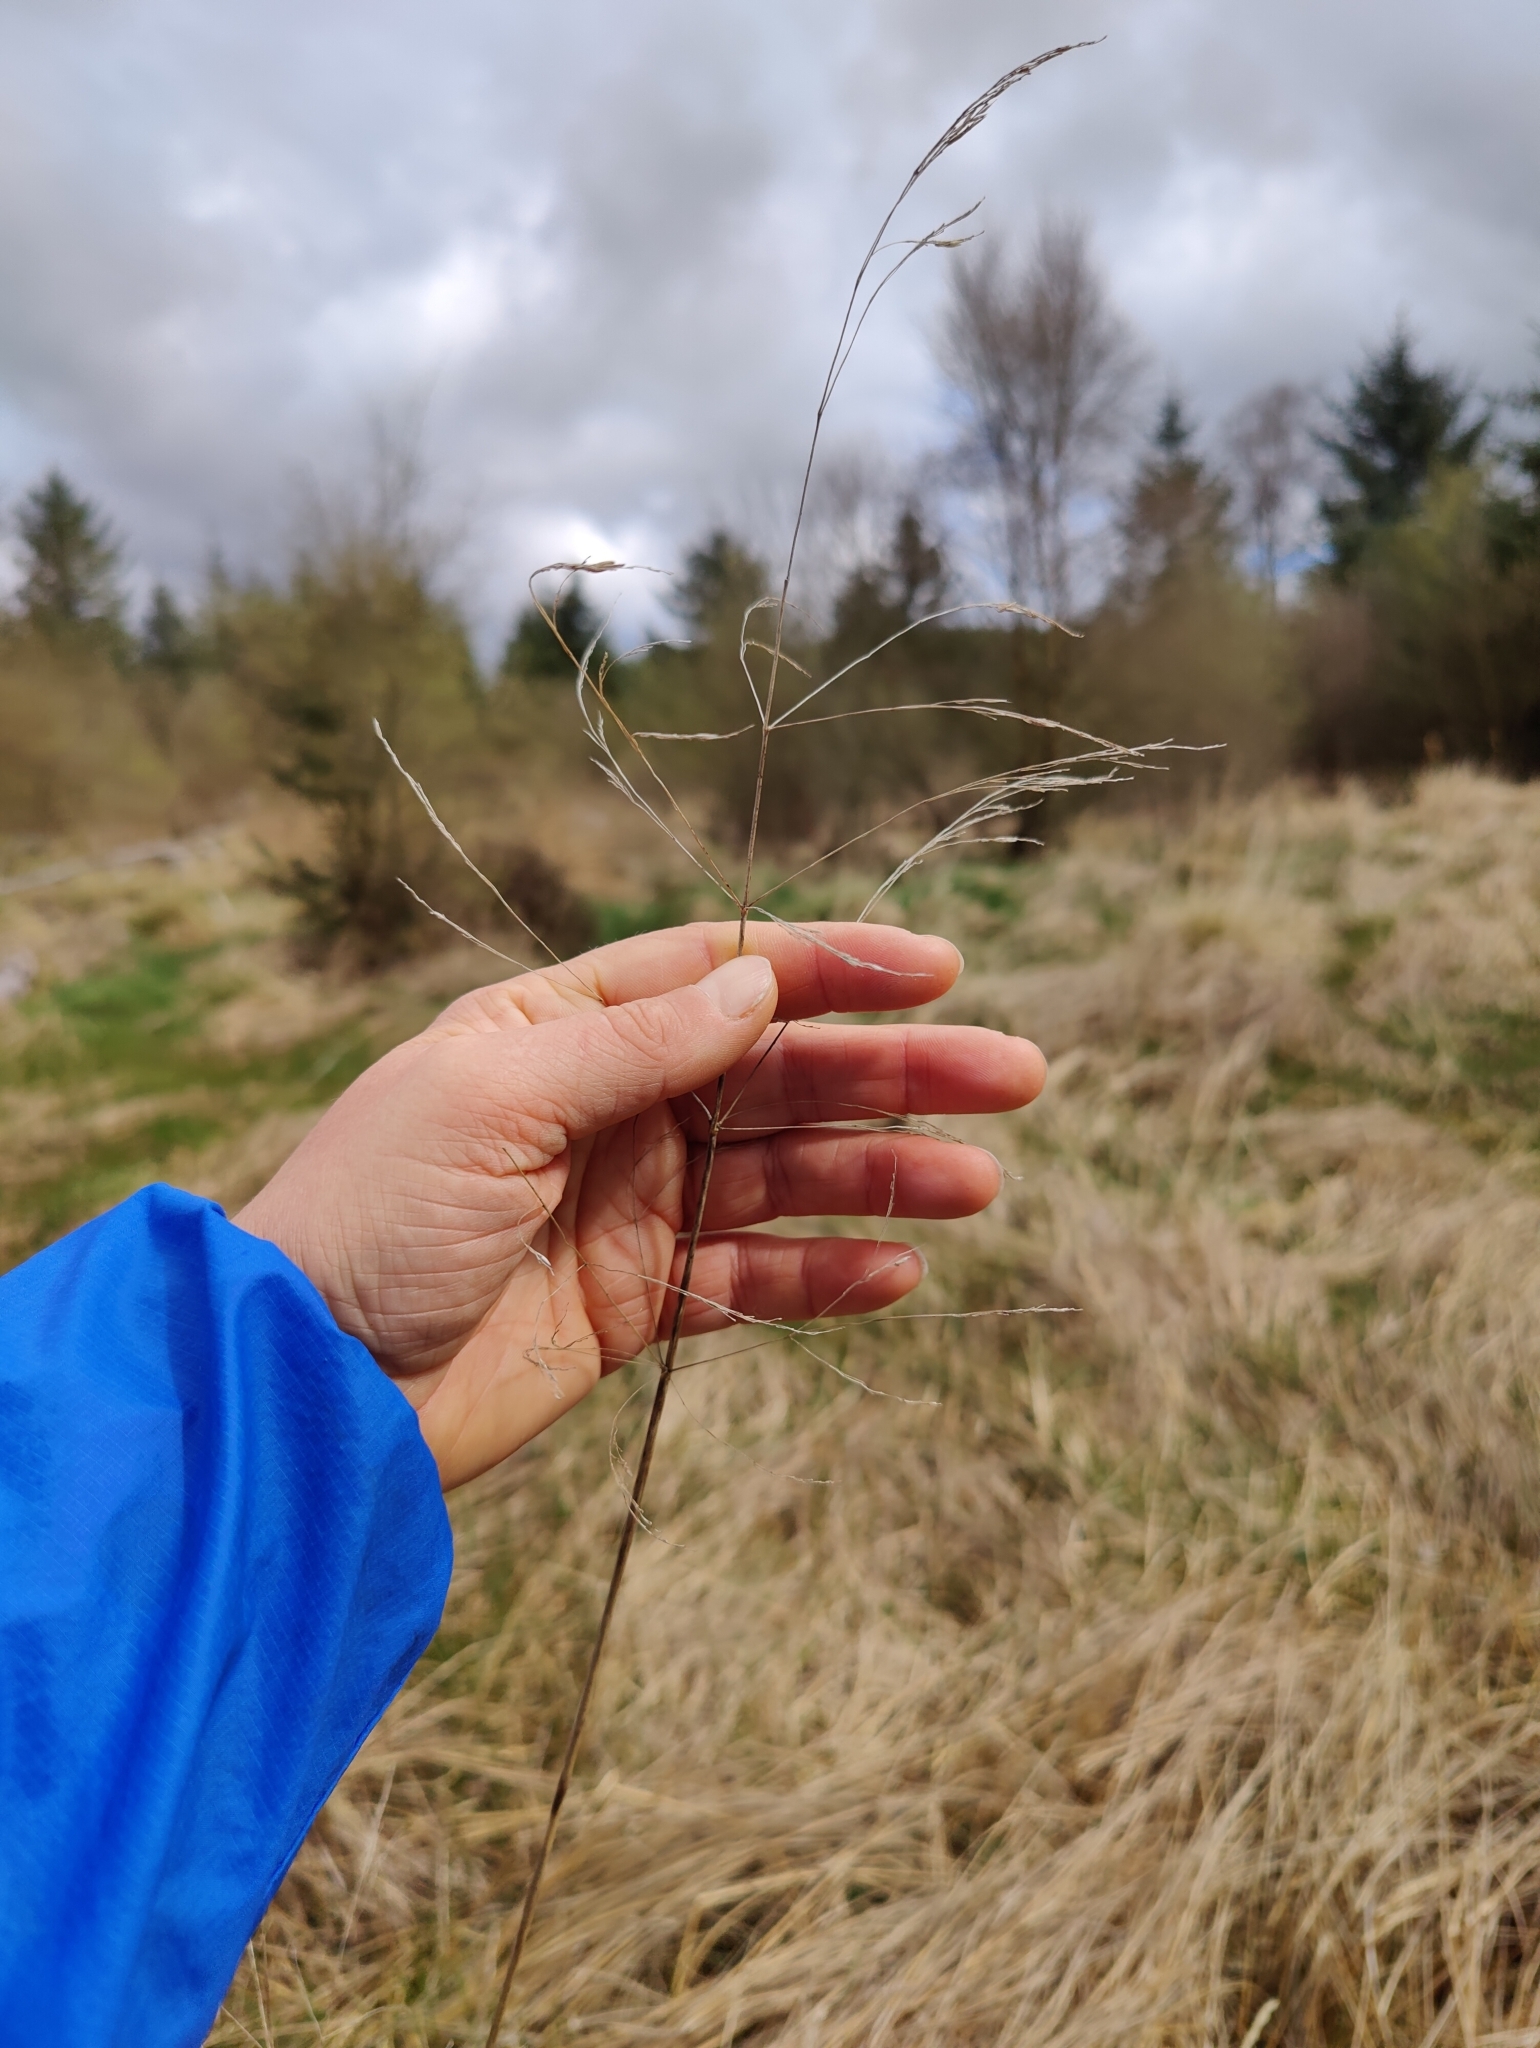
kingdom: Plantae
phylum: Tracheophyta
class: Liliopsida
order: Poales
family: Poaceae
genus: Deschampsia
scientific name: Deschampsia cespitosa
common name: Tufted hair-grass
